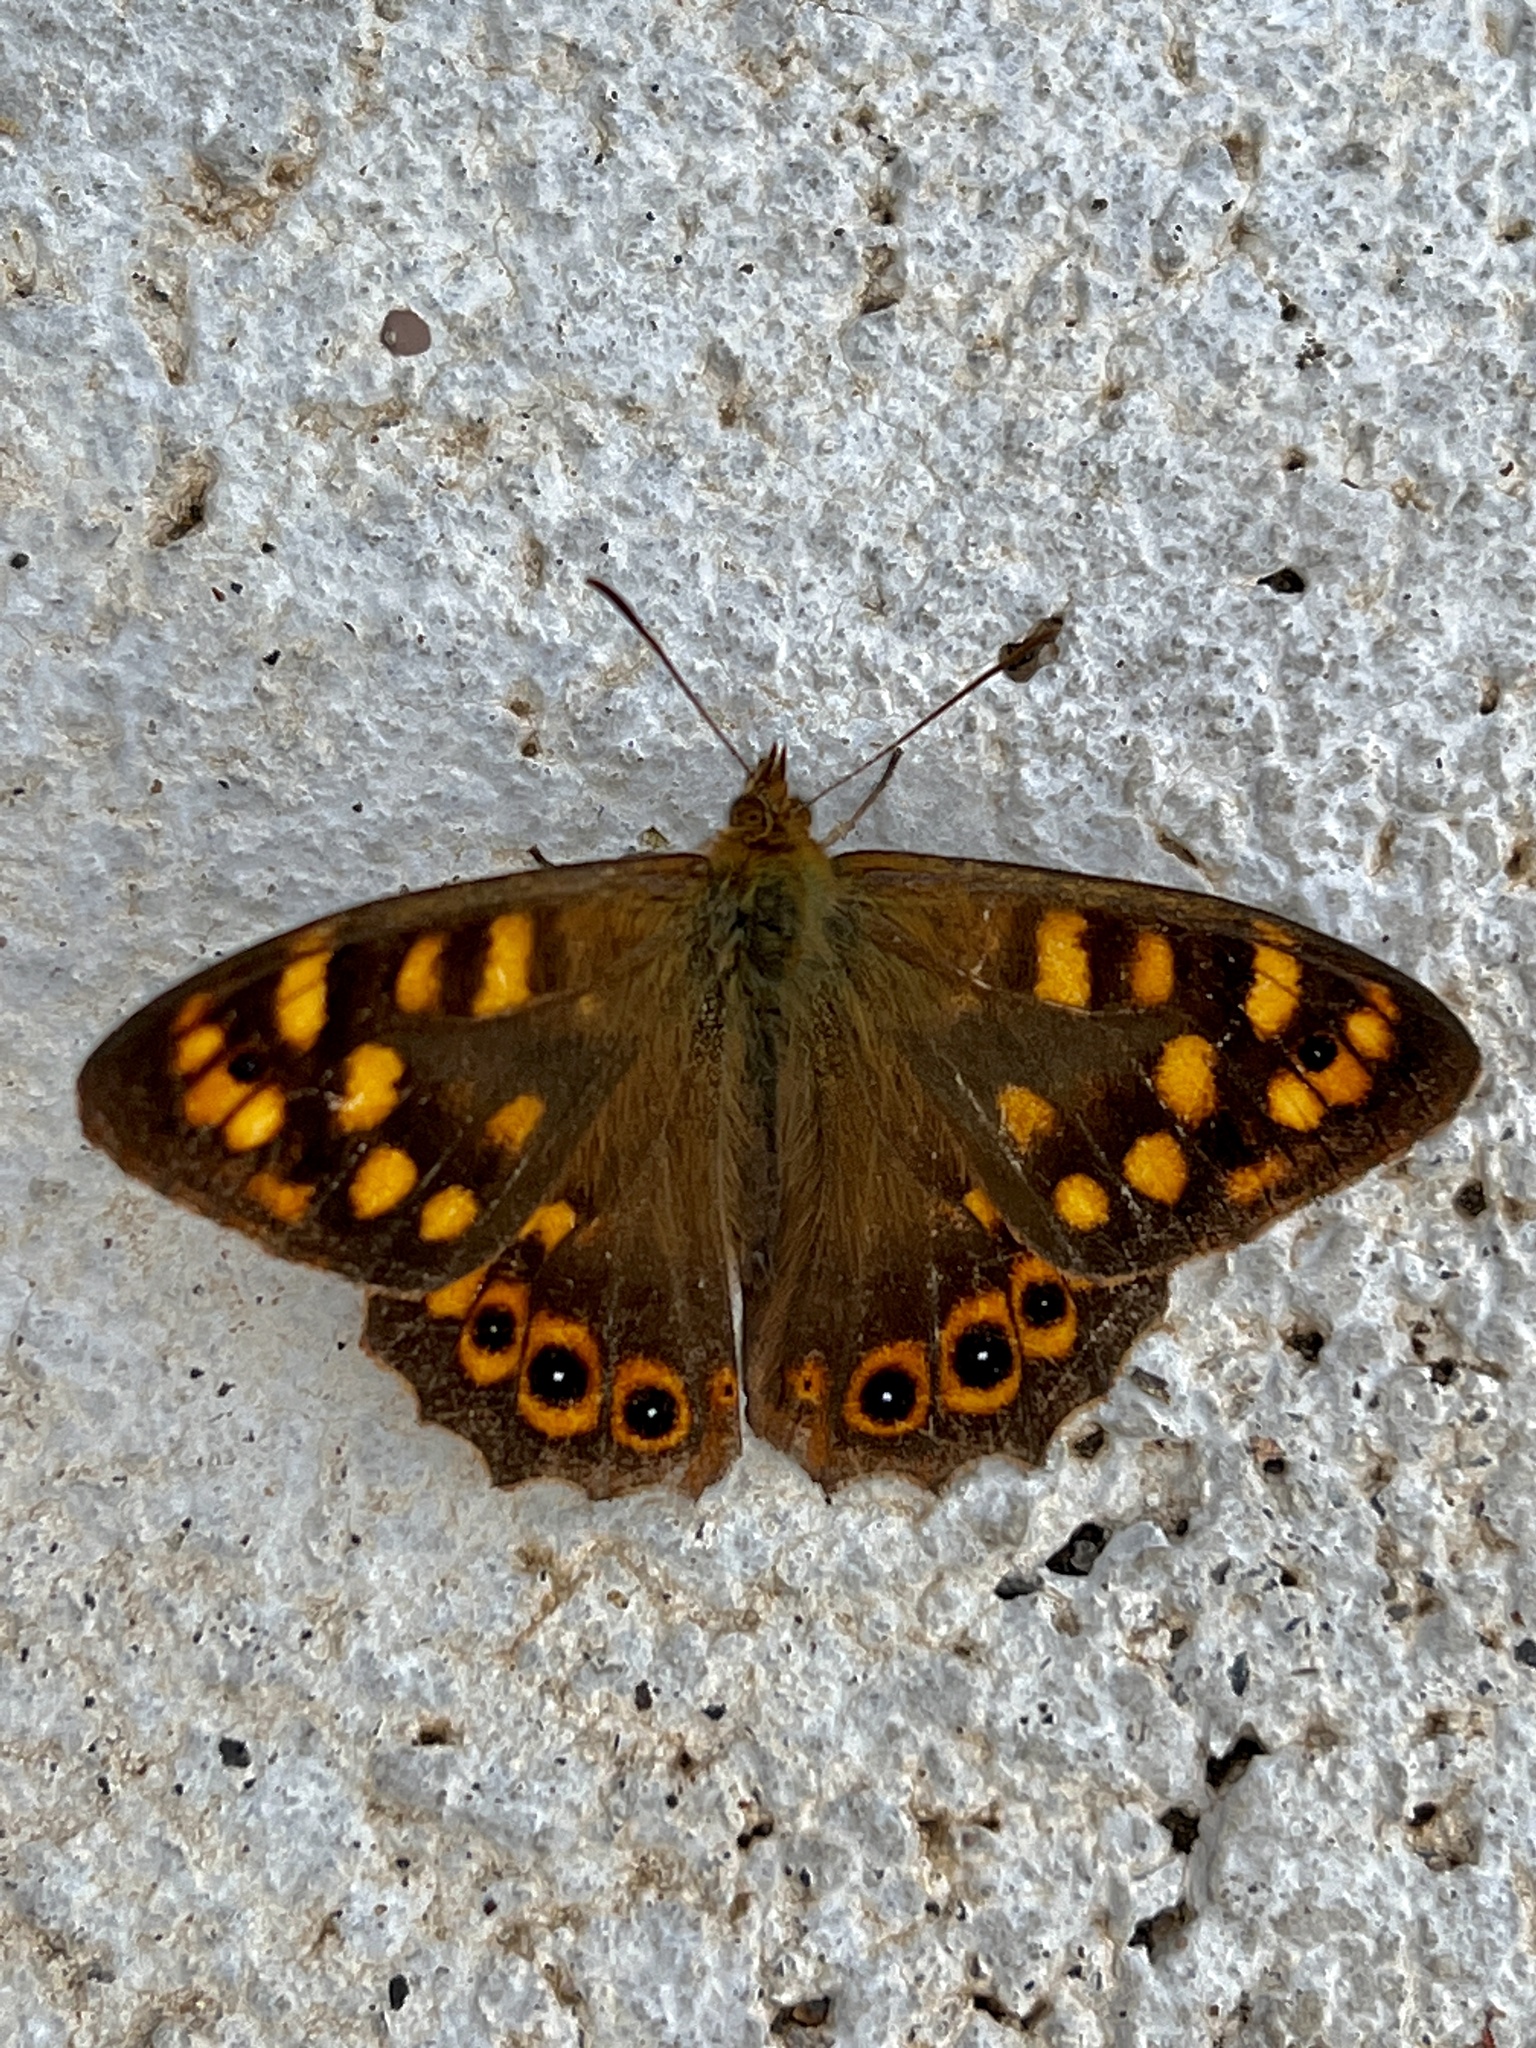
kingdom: Animalia
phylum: Arthropoda
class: Insecta
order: Lepidoptera
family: Nymphalidae
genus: Pararge
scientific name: Pararge aegeria
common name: Speckled wood
